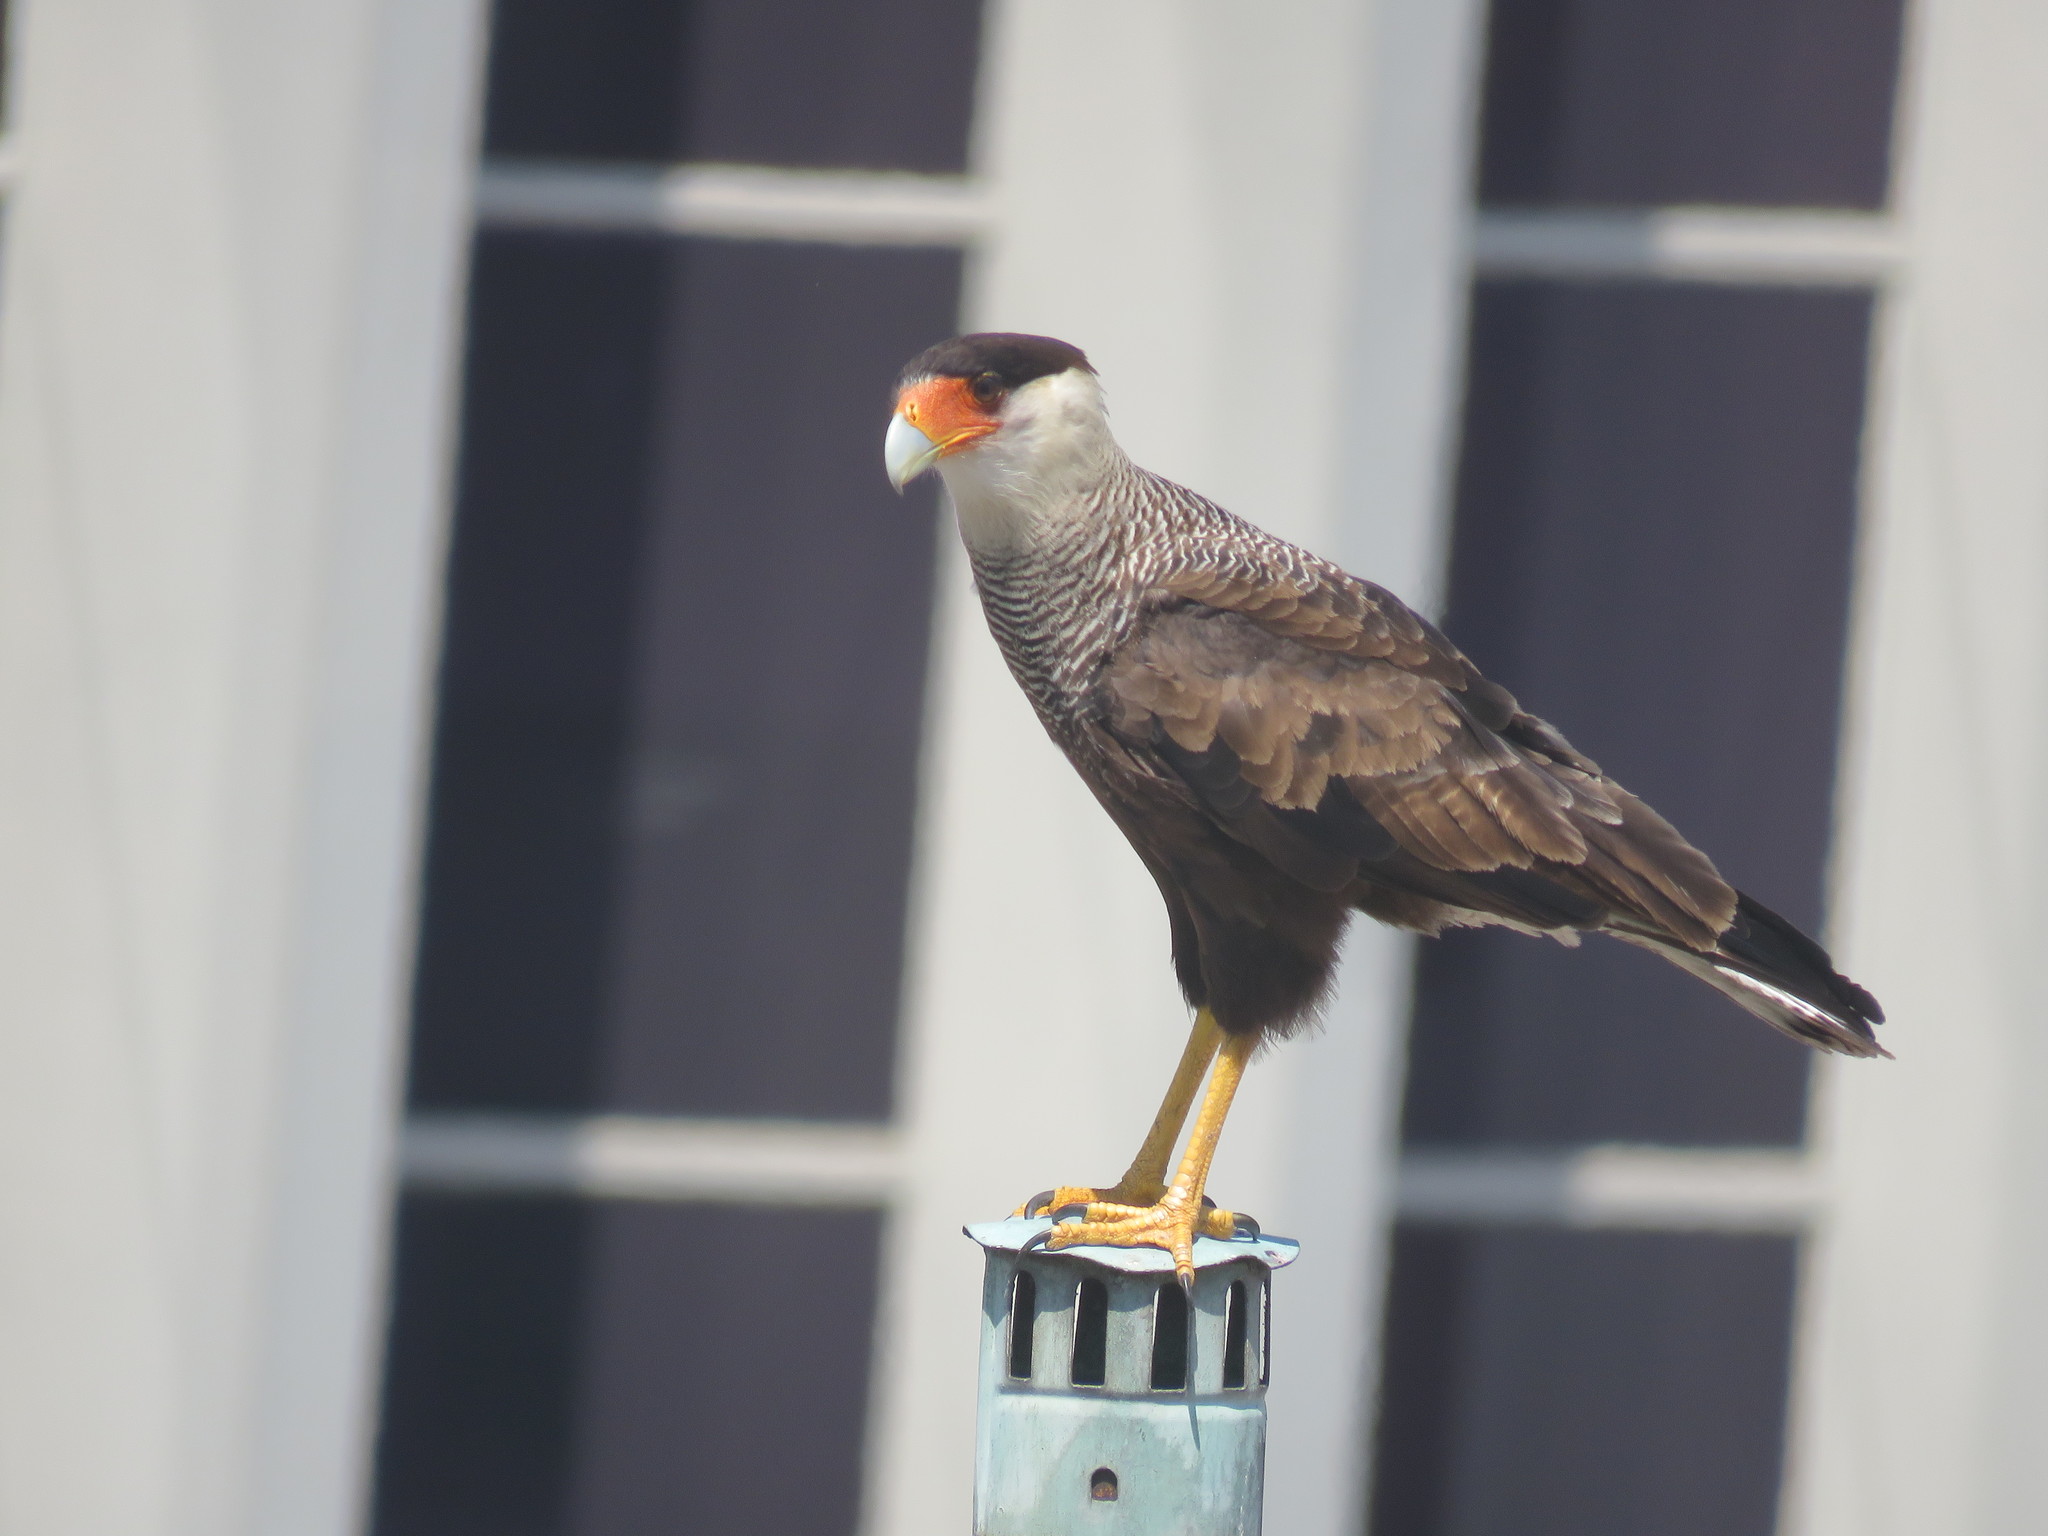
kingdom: Animalia
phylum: Chordata
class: Aves
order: Falconiformes
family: Falconidae
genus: Caracara
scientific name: Caracara plancus
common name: Southern caracara
